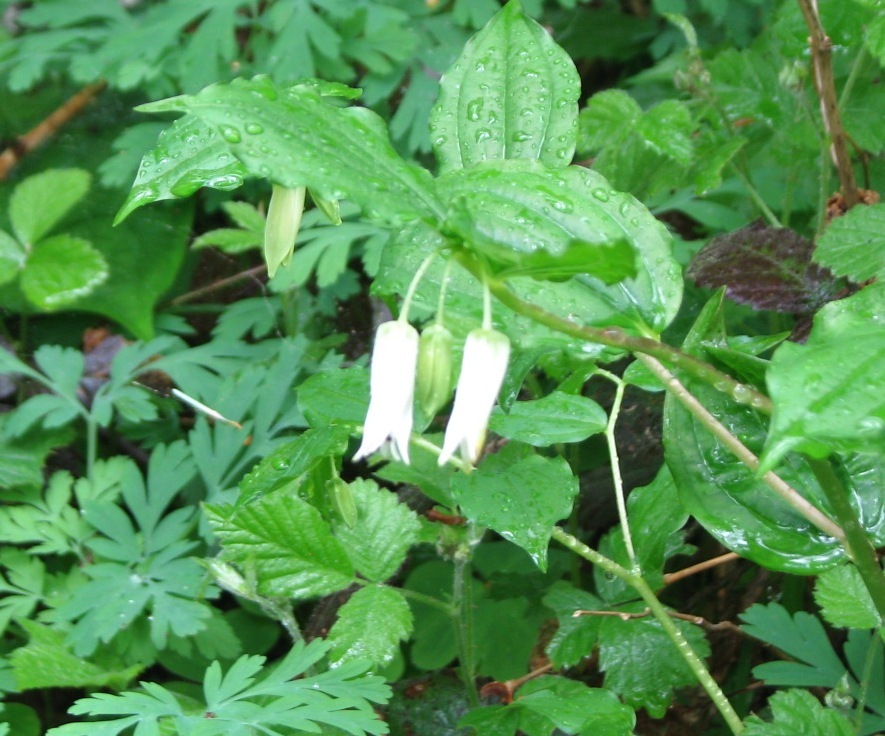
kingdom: Plantae
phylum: Tracheophyta
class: Liliopsida
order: Liliales
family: Liliaceae
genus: Prosartes
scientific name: Prosartes smithii
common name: Fairy-lantern
